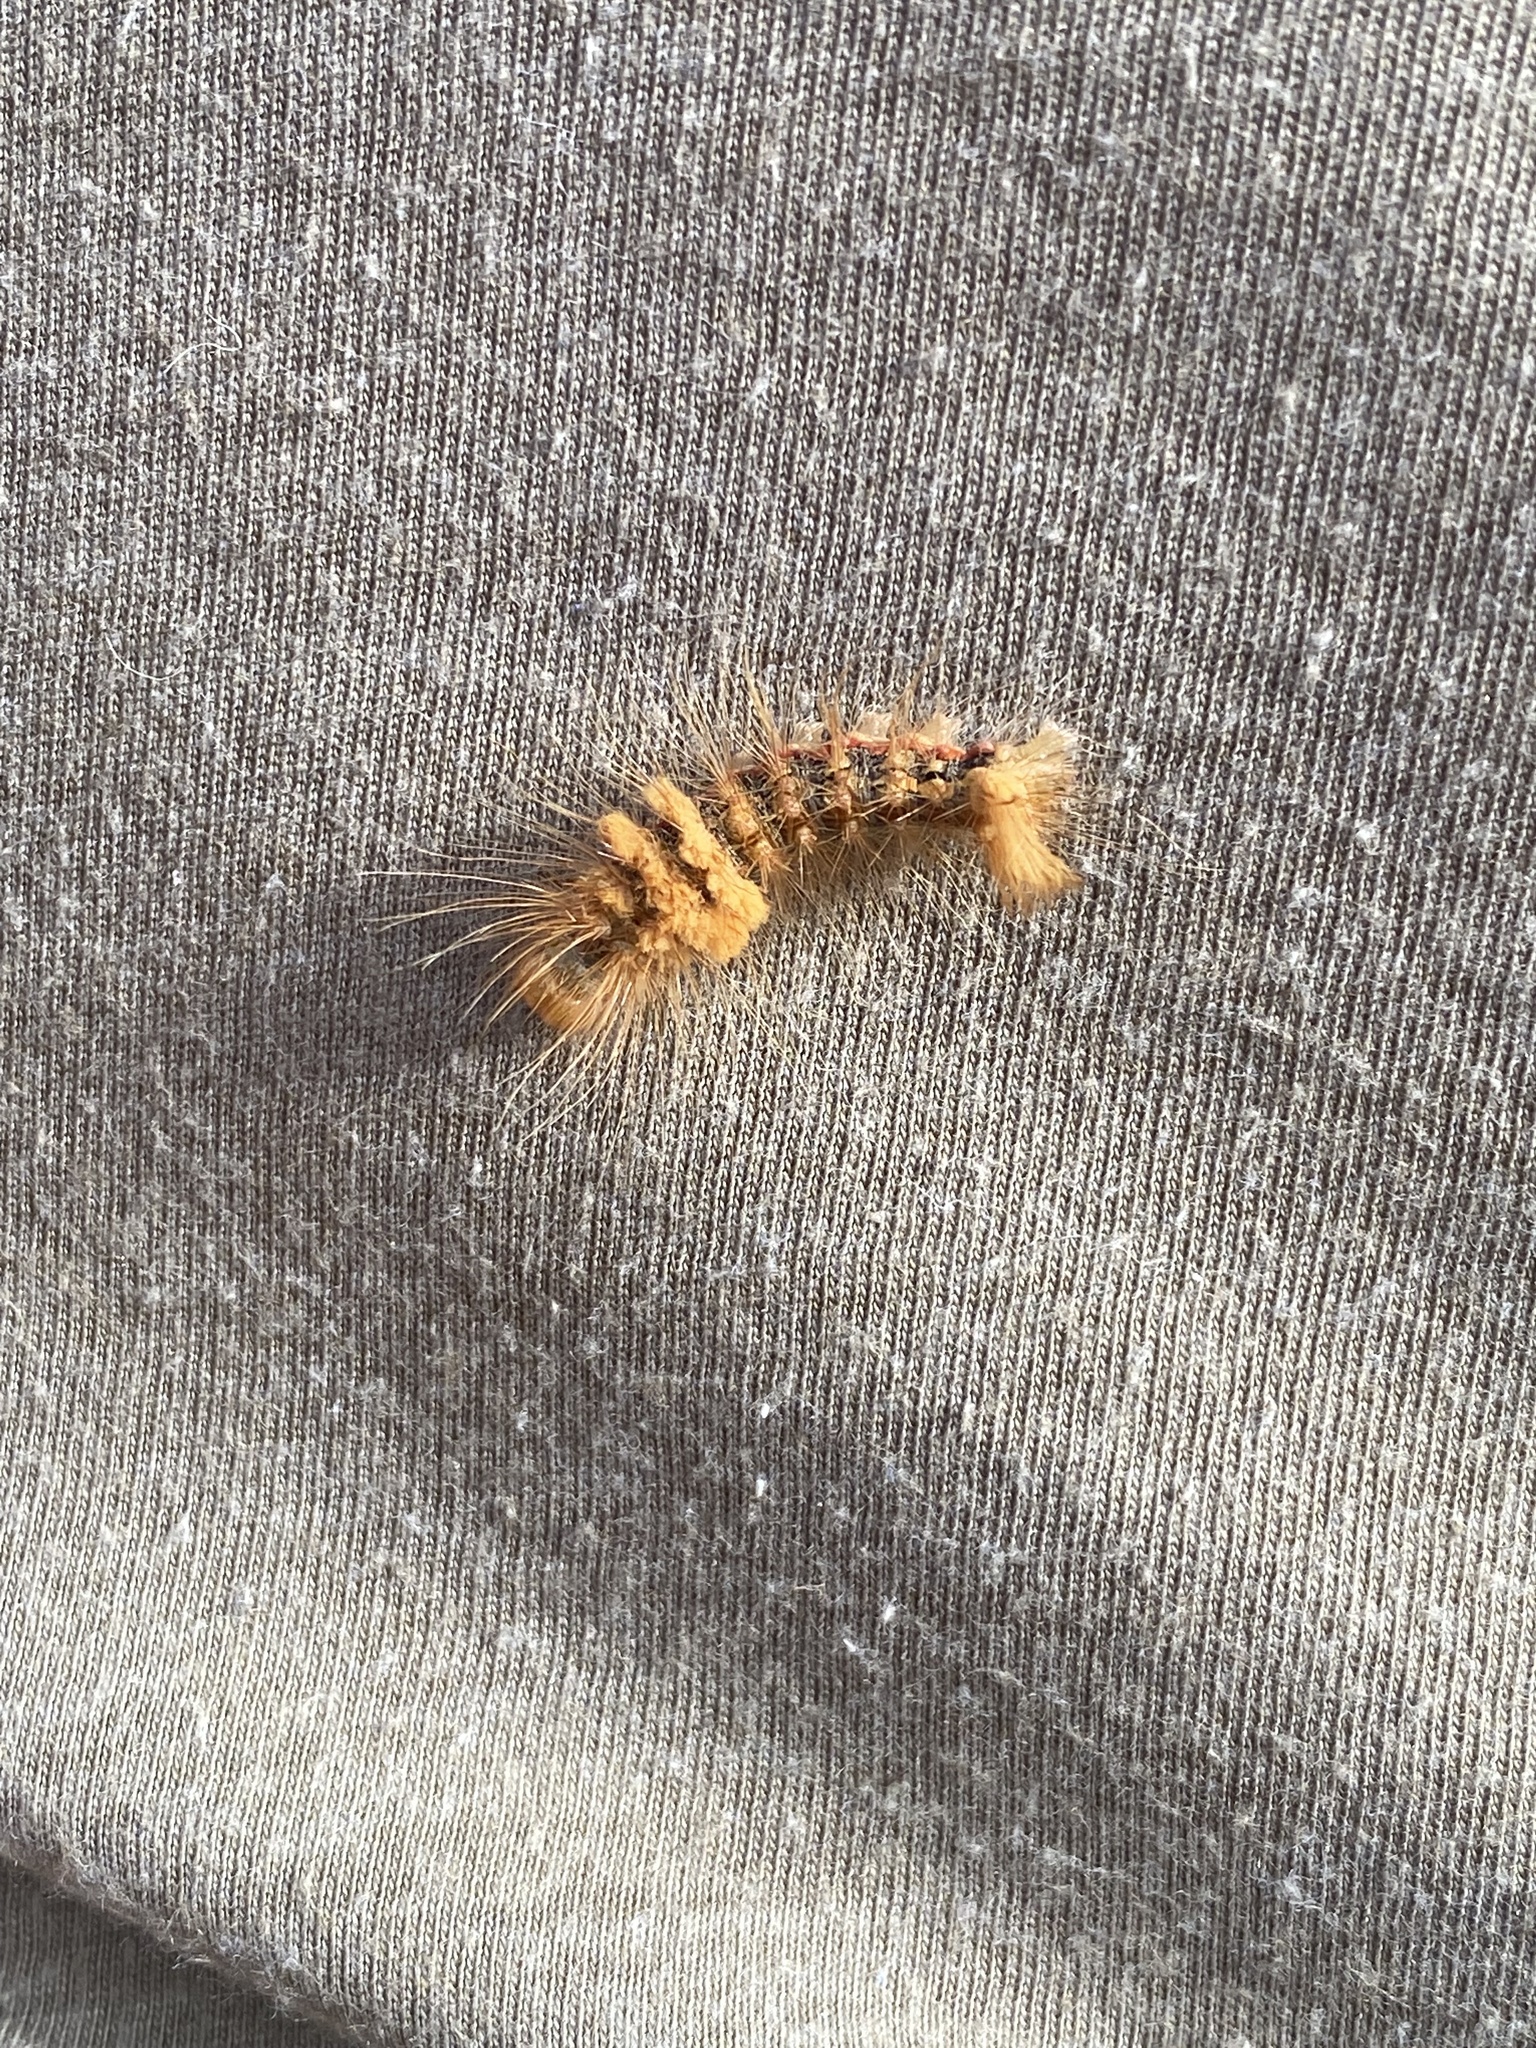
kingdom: Animalia
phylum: Arthropoda
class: Insecta
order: Lepidoptera
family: Noctuidae
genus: Acronicta
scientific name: Acronicta impleta
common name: Powdered dagger
